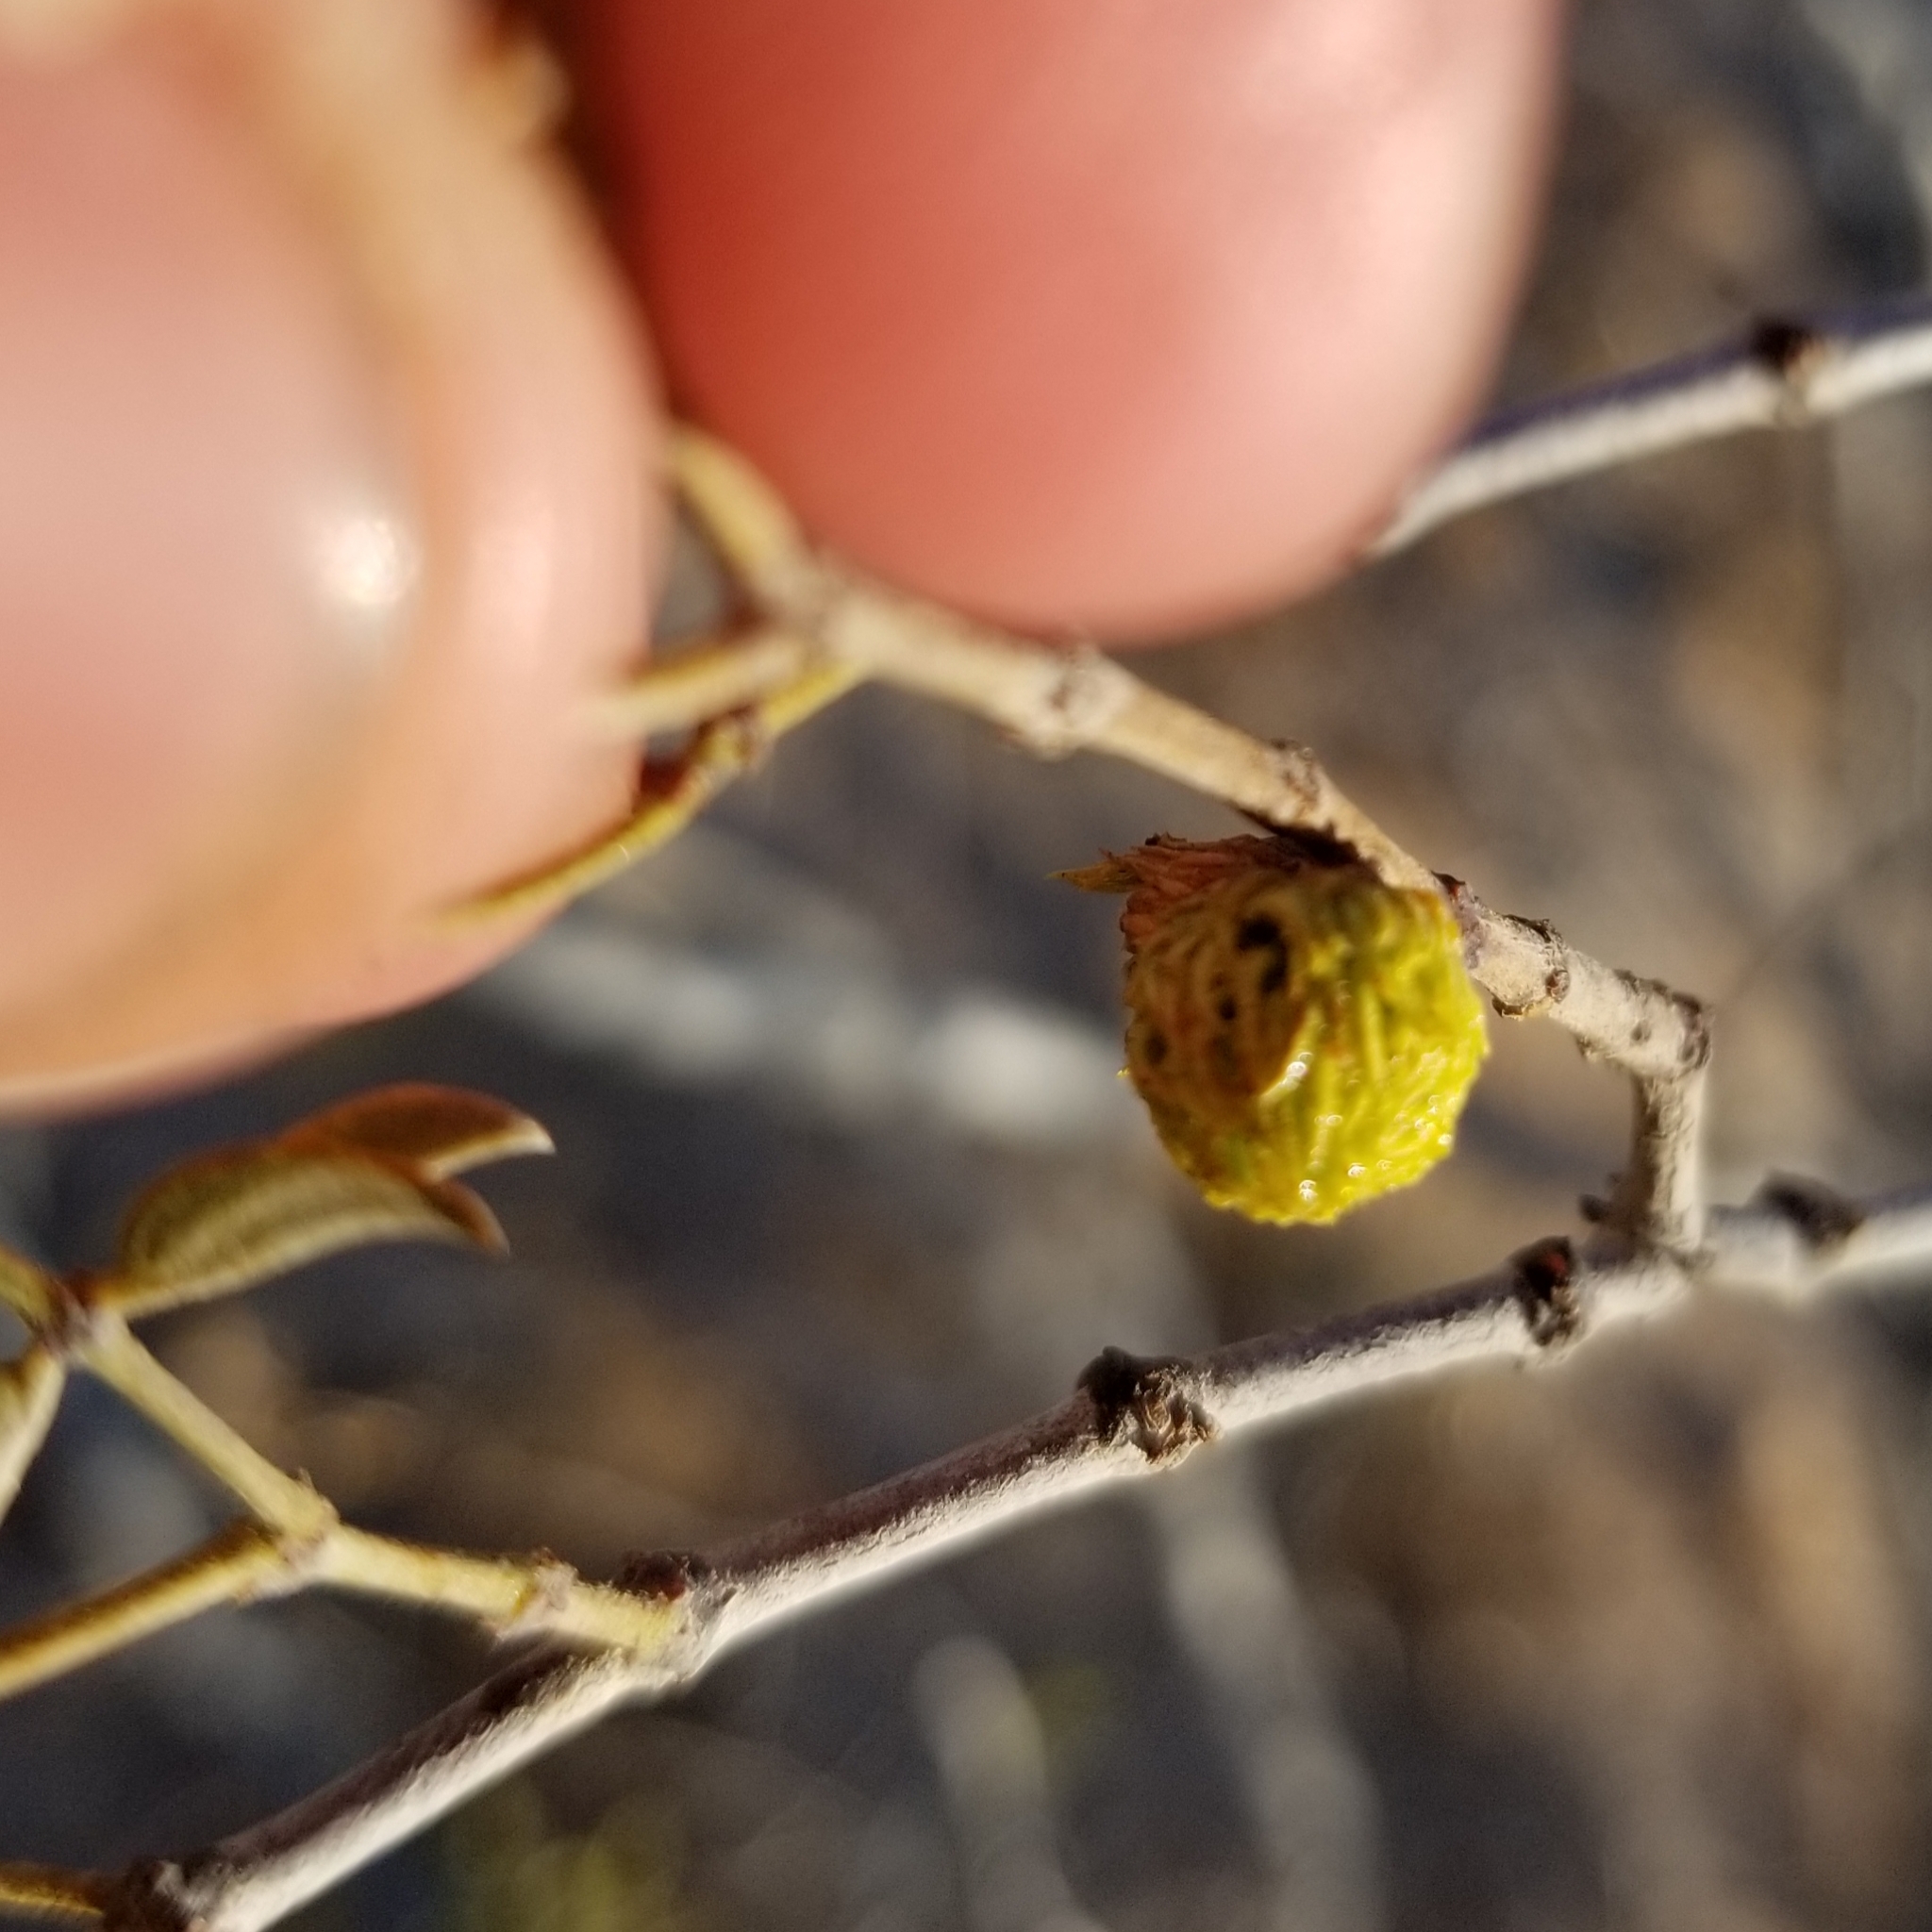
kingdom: Animalia
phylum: Arthropoda
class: Insecta
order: Diptera
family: Cecidomyiidae
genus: Asphondylia
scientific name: Asphondylia foliosa
